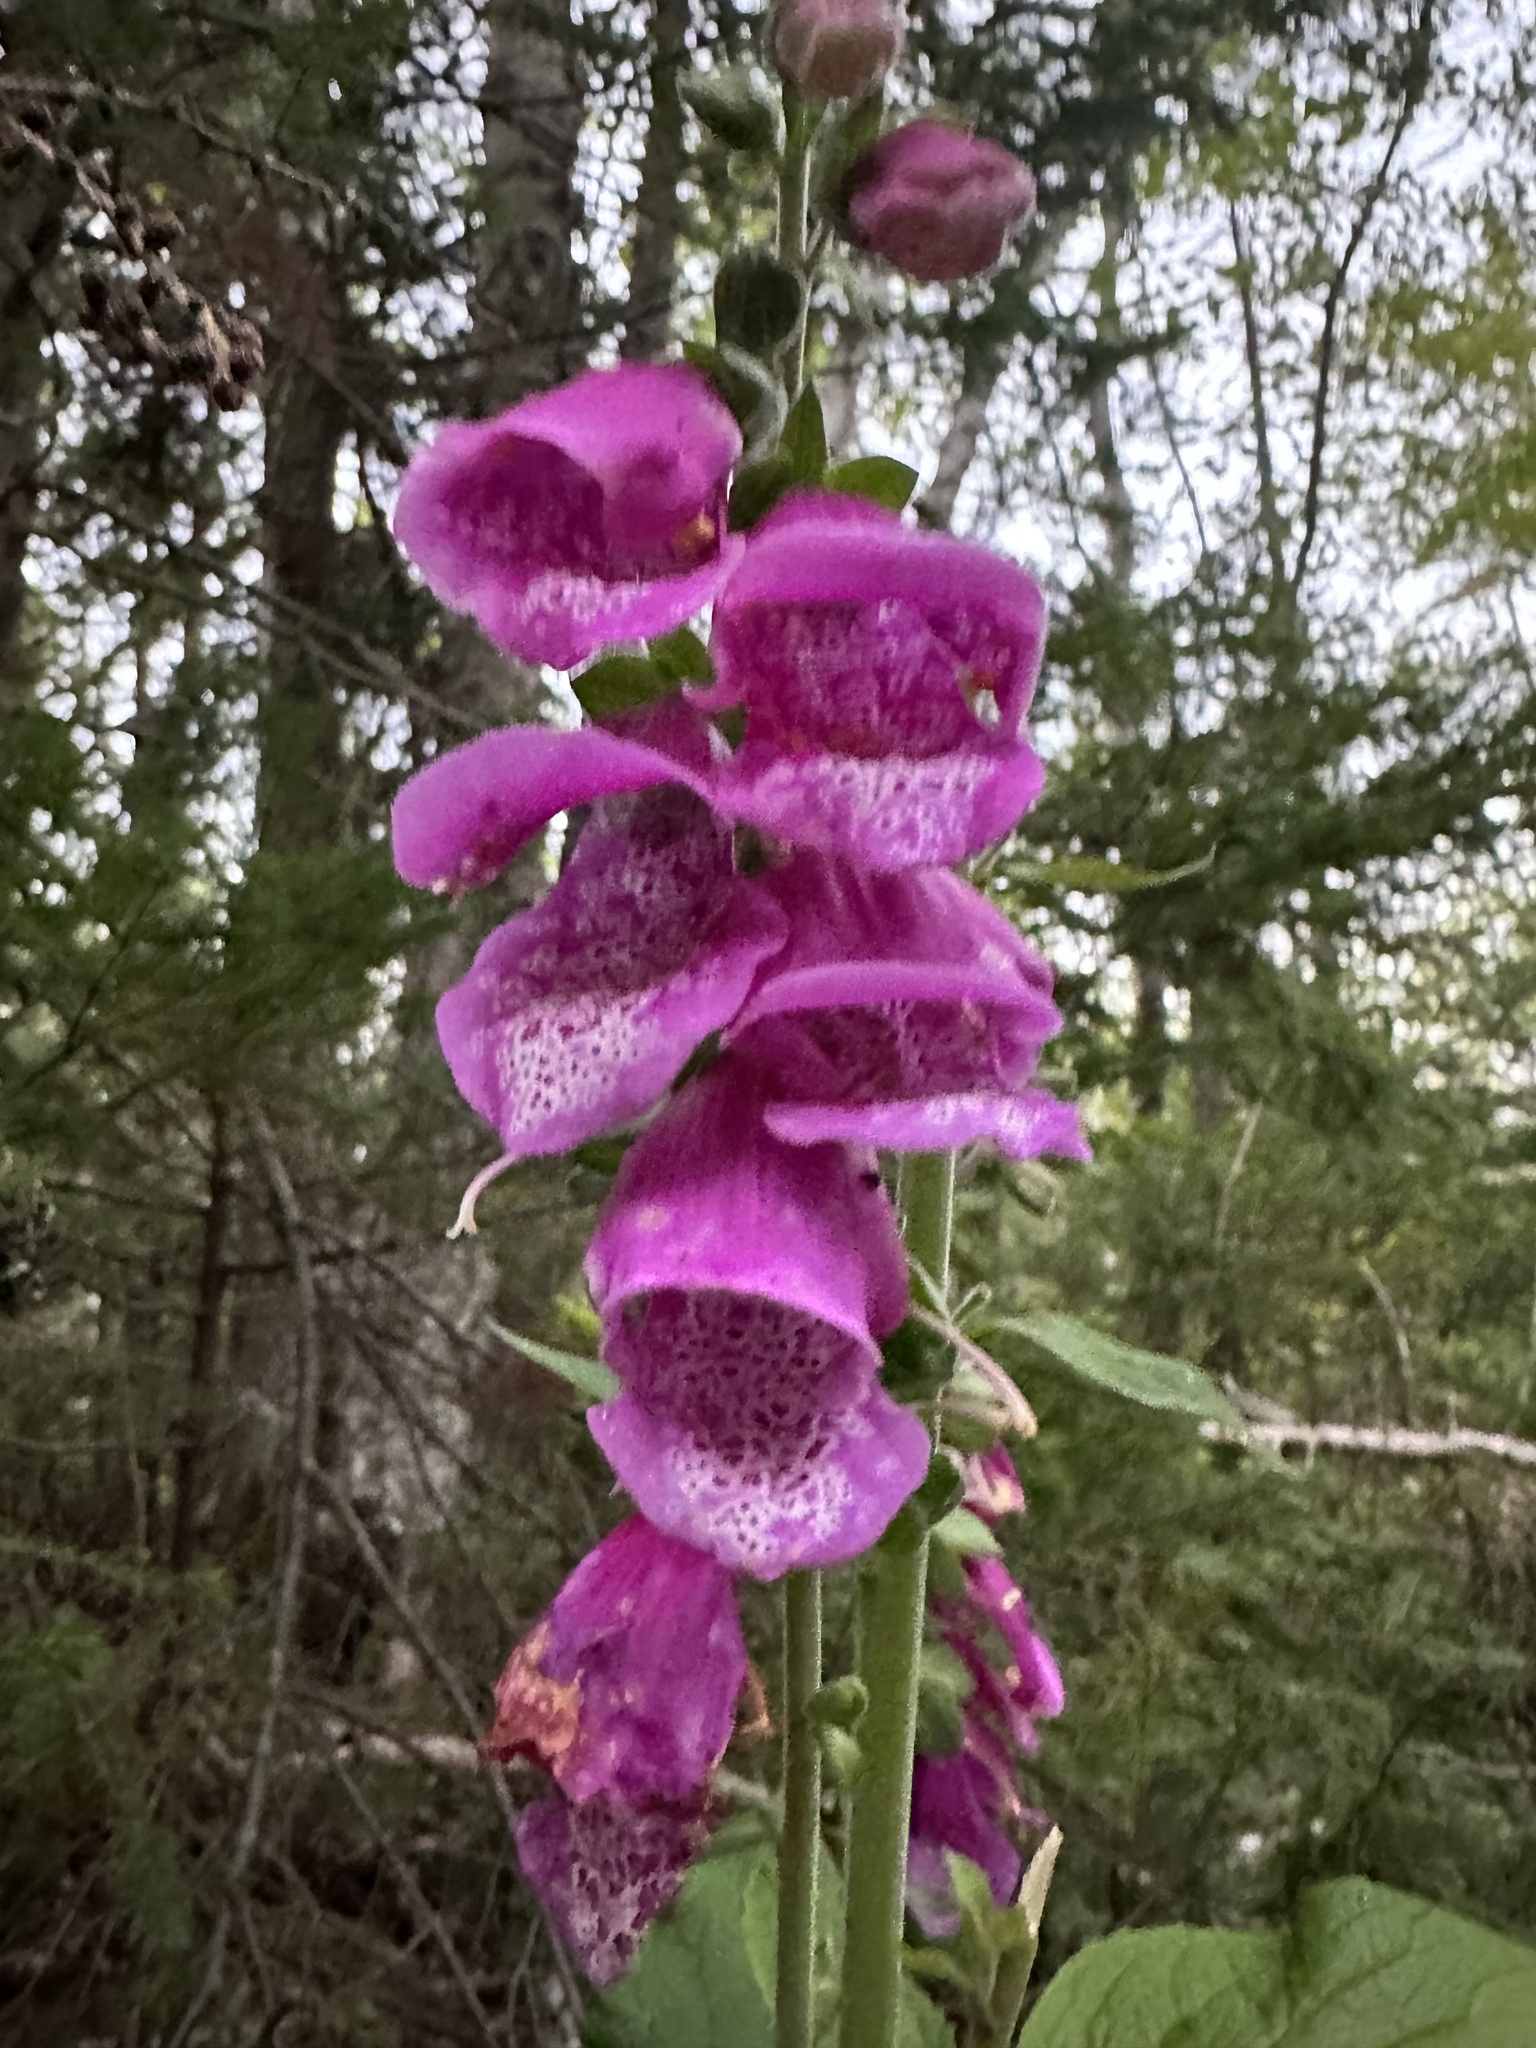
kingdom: Plantae
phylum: Tracheophyta
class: Magnoliopsida
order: Lamiales
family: Plantaginaceae
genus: Digitalis
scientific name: Digitalis purpurea
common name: Foxglove
